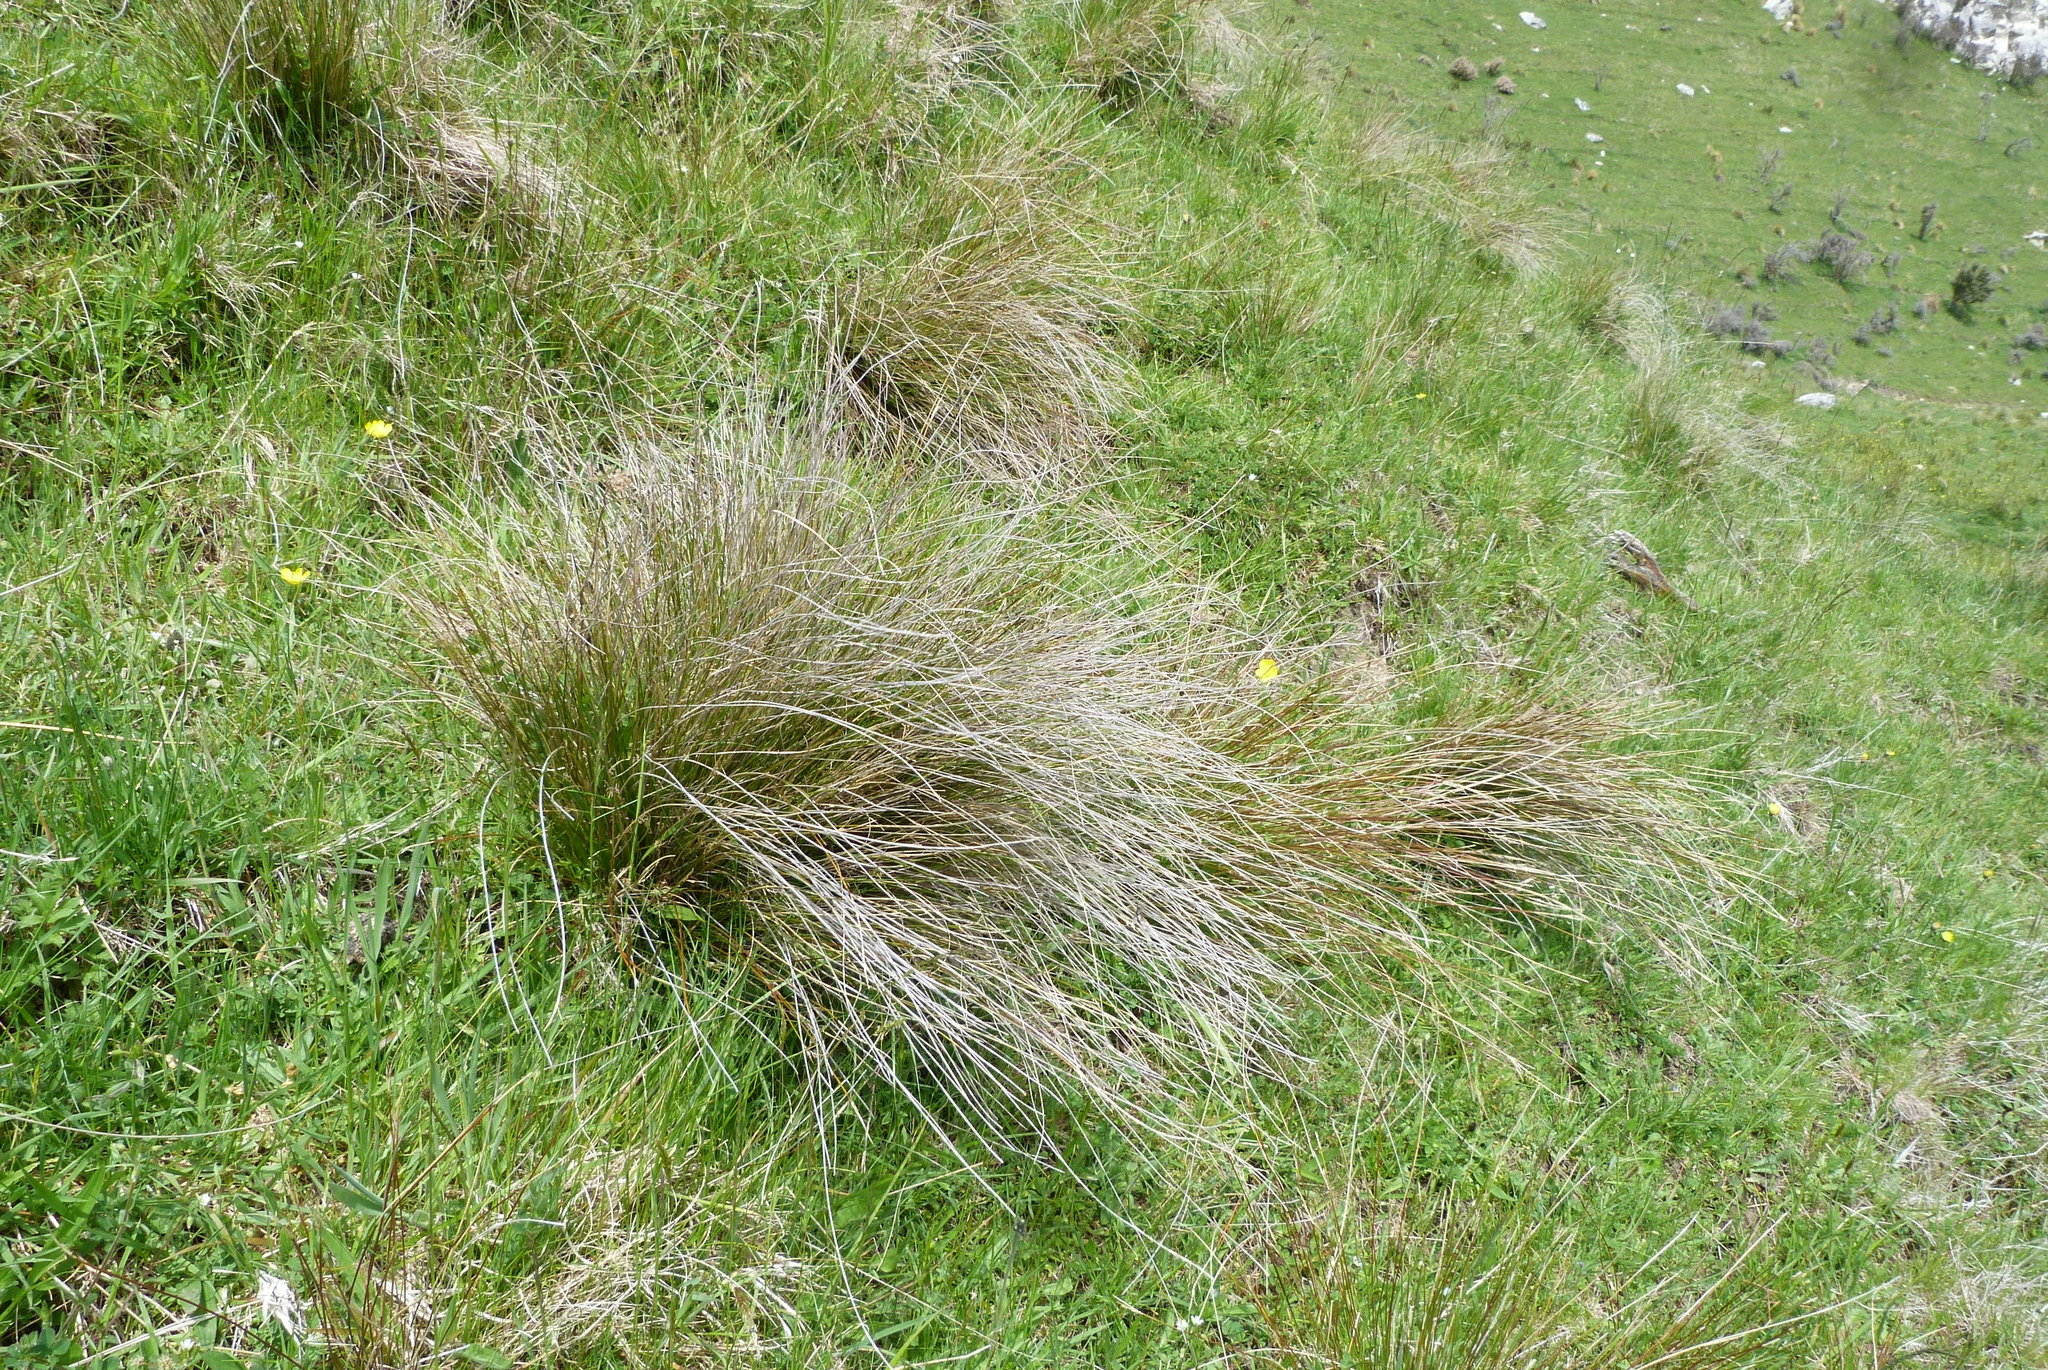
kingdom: Plantae
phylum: Tracheophyta
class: Liliopsida
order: Poales
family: Cyperaceae
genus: Schoenus
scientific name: Schoenus pauciflorus
